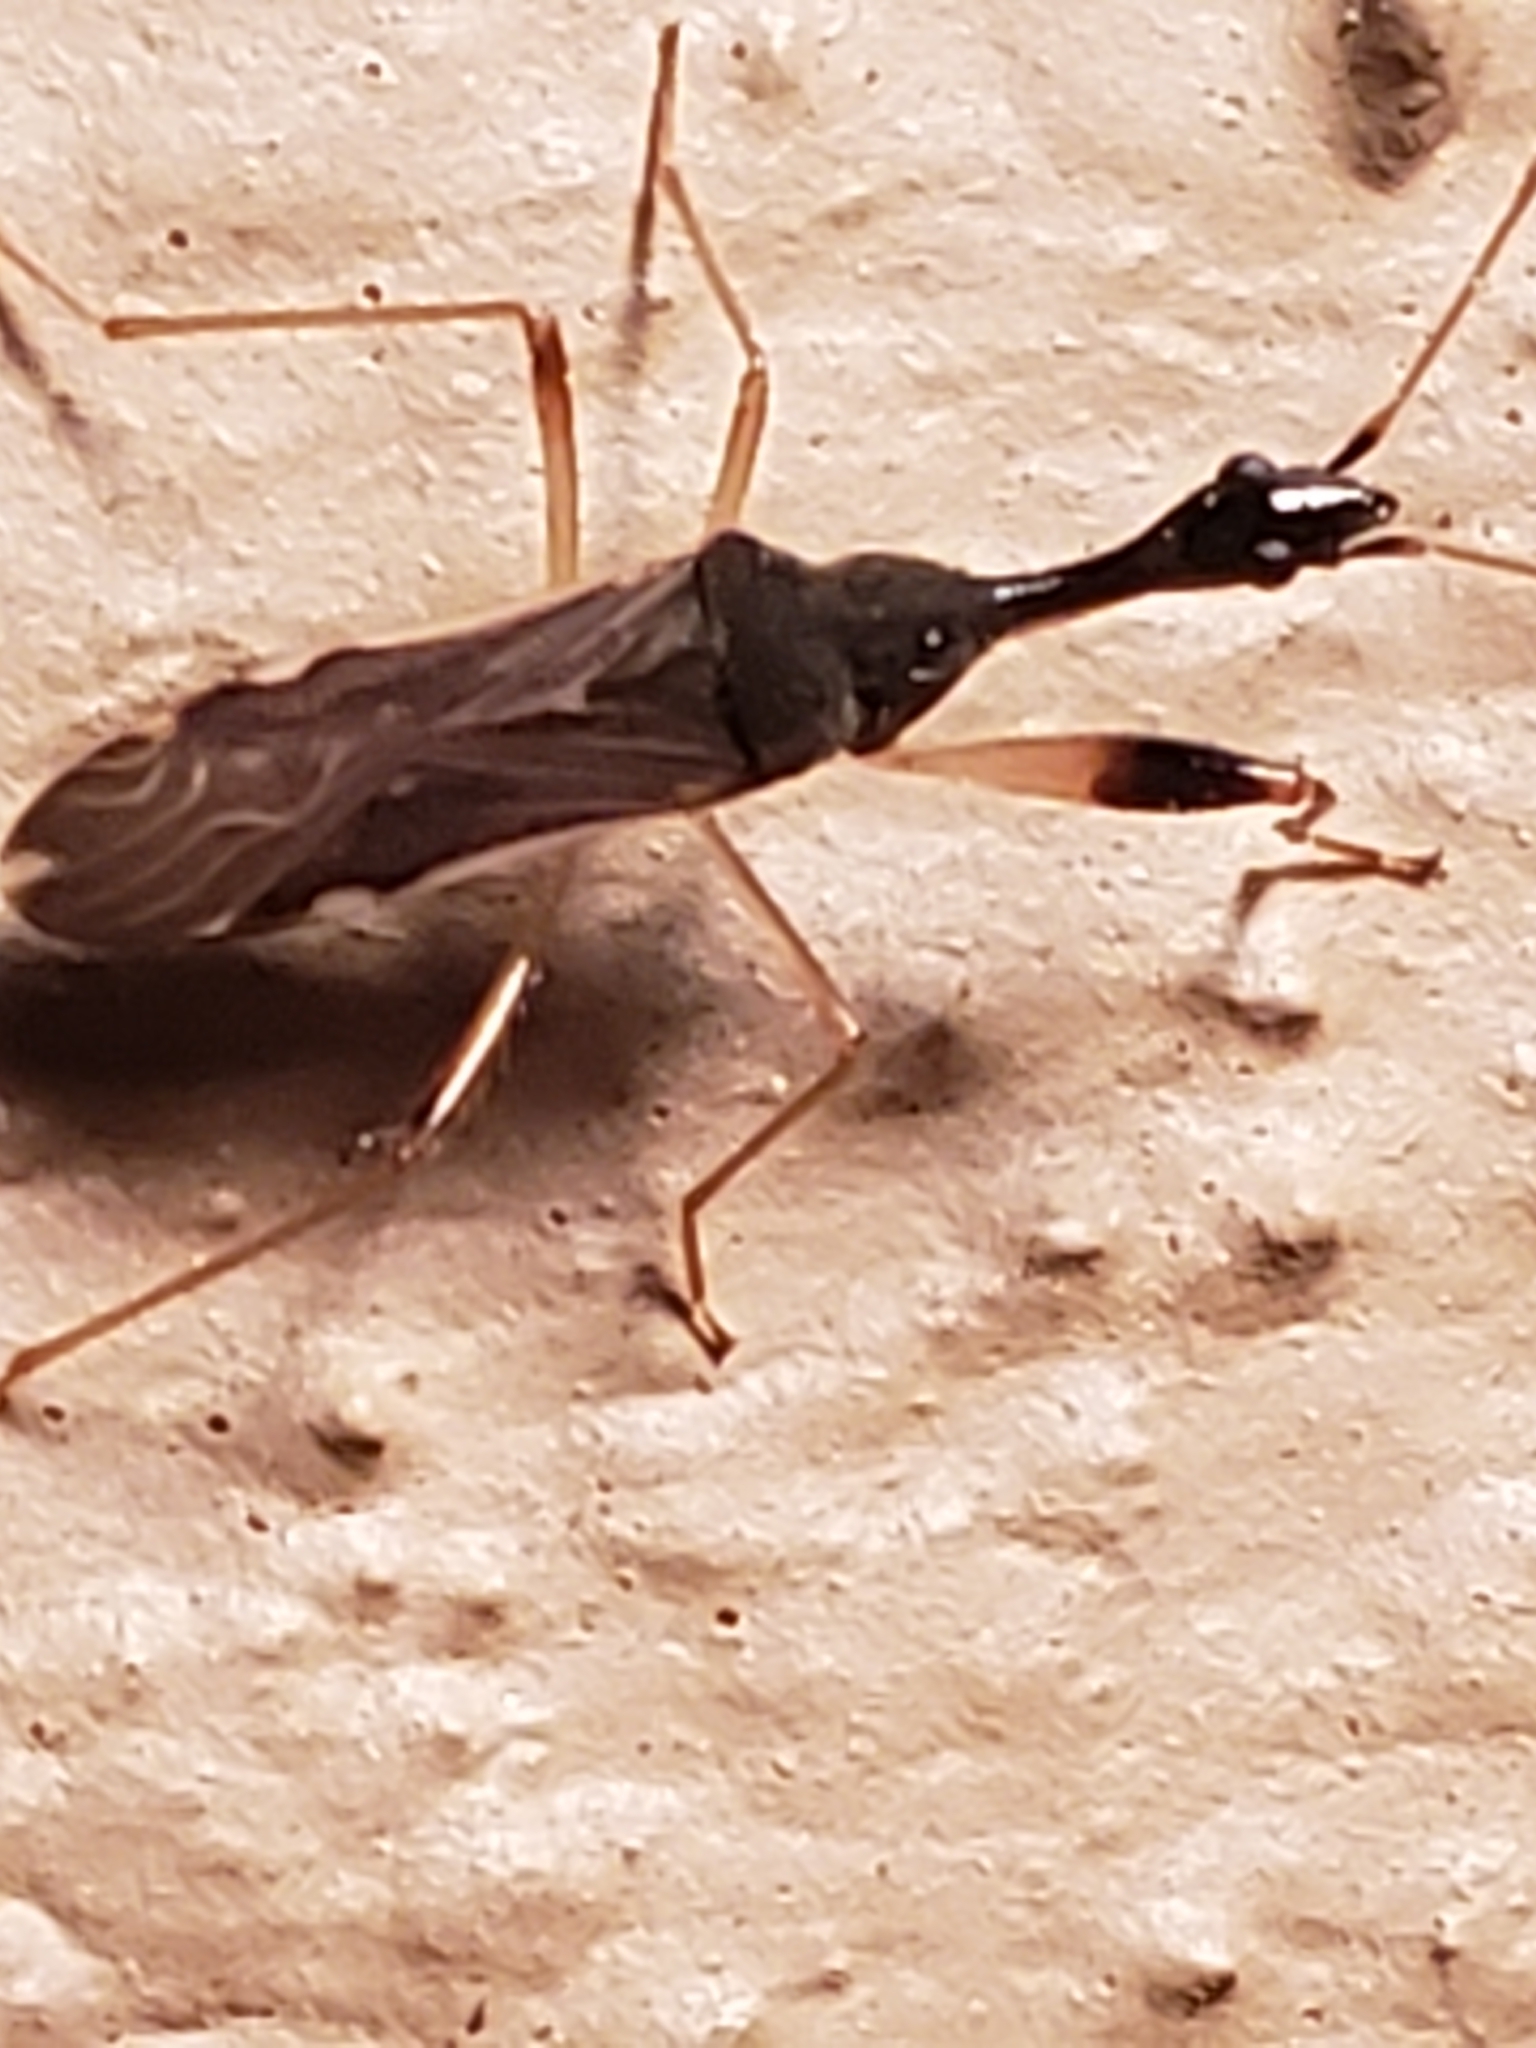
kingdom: Animalia
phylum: Arthropoda
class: Insecta
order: Hemiptera
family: Rhyparochromidae
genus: Myodocha
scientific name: Myodocha serripes
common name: Long-necked seed bug
